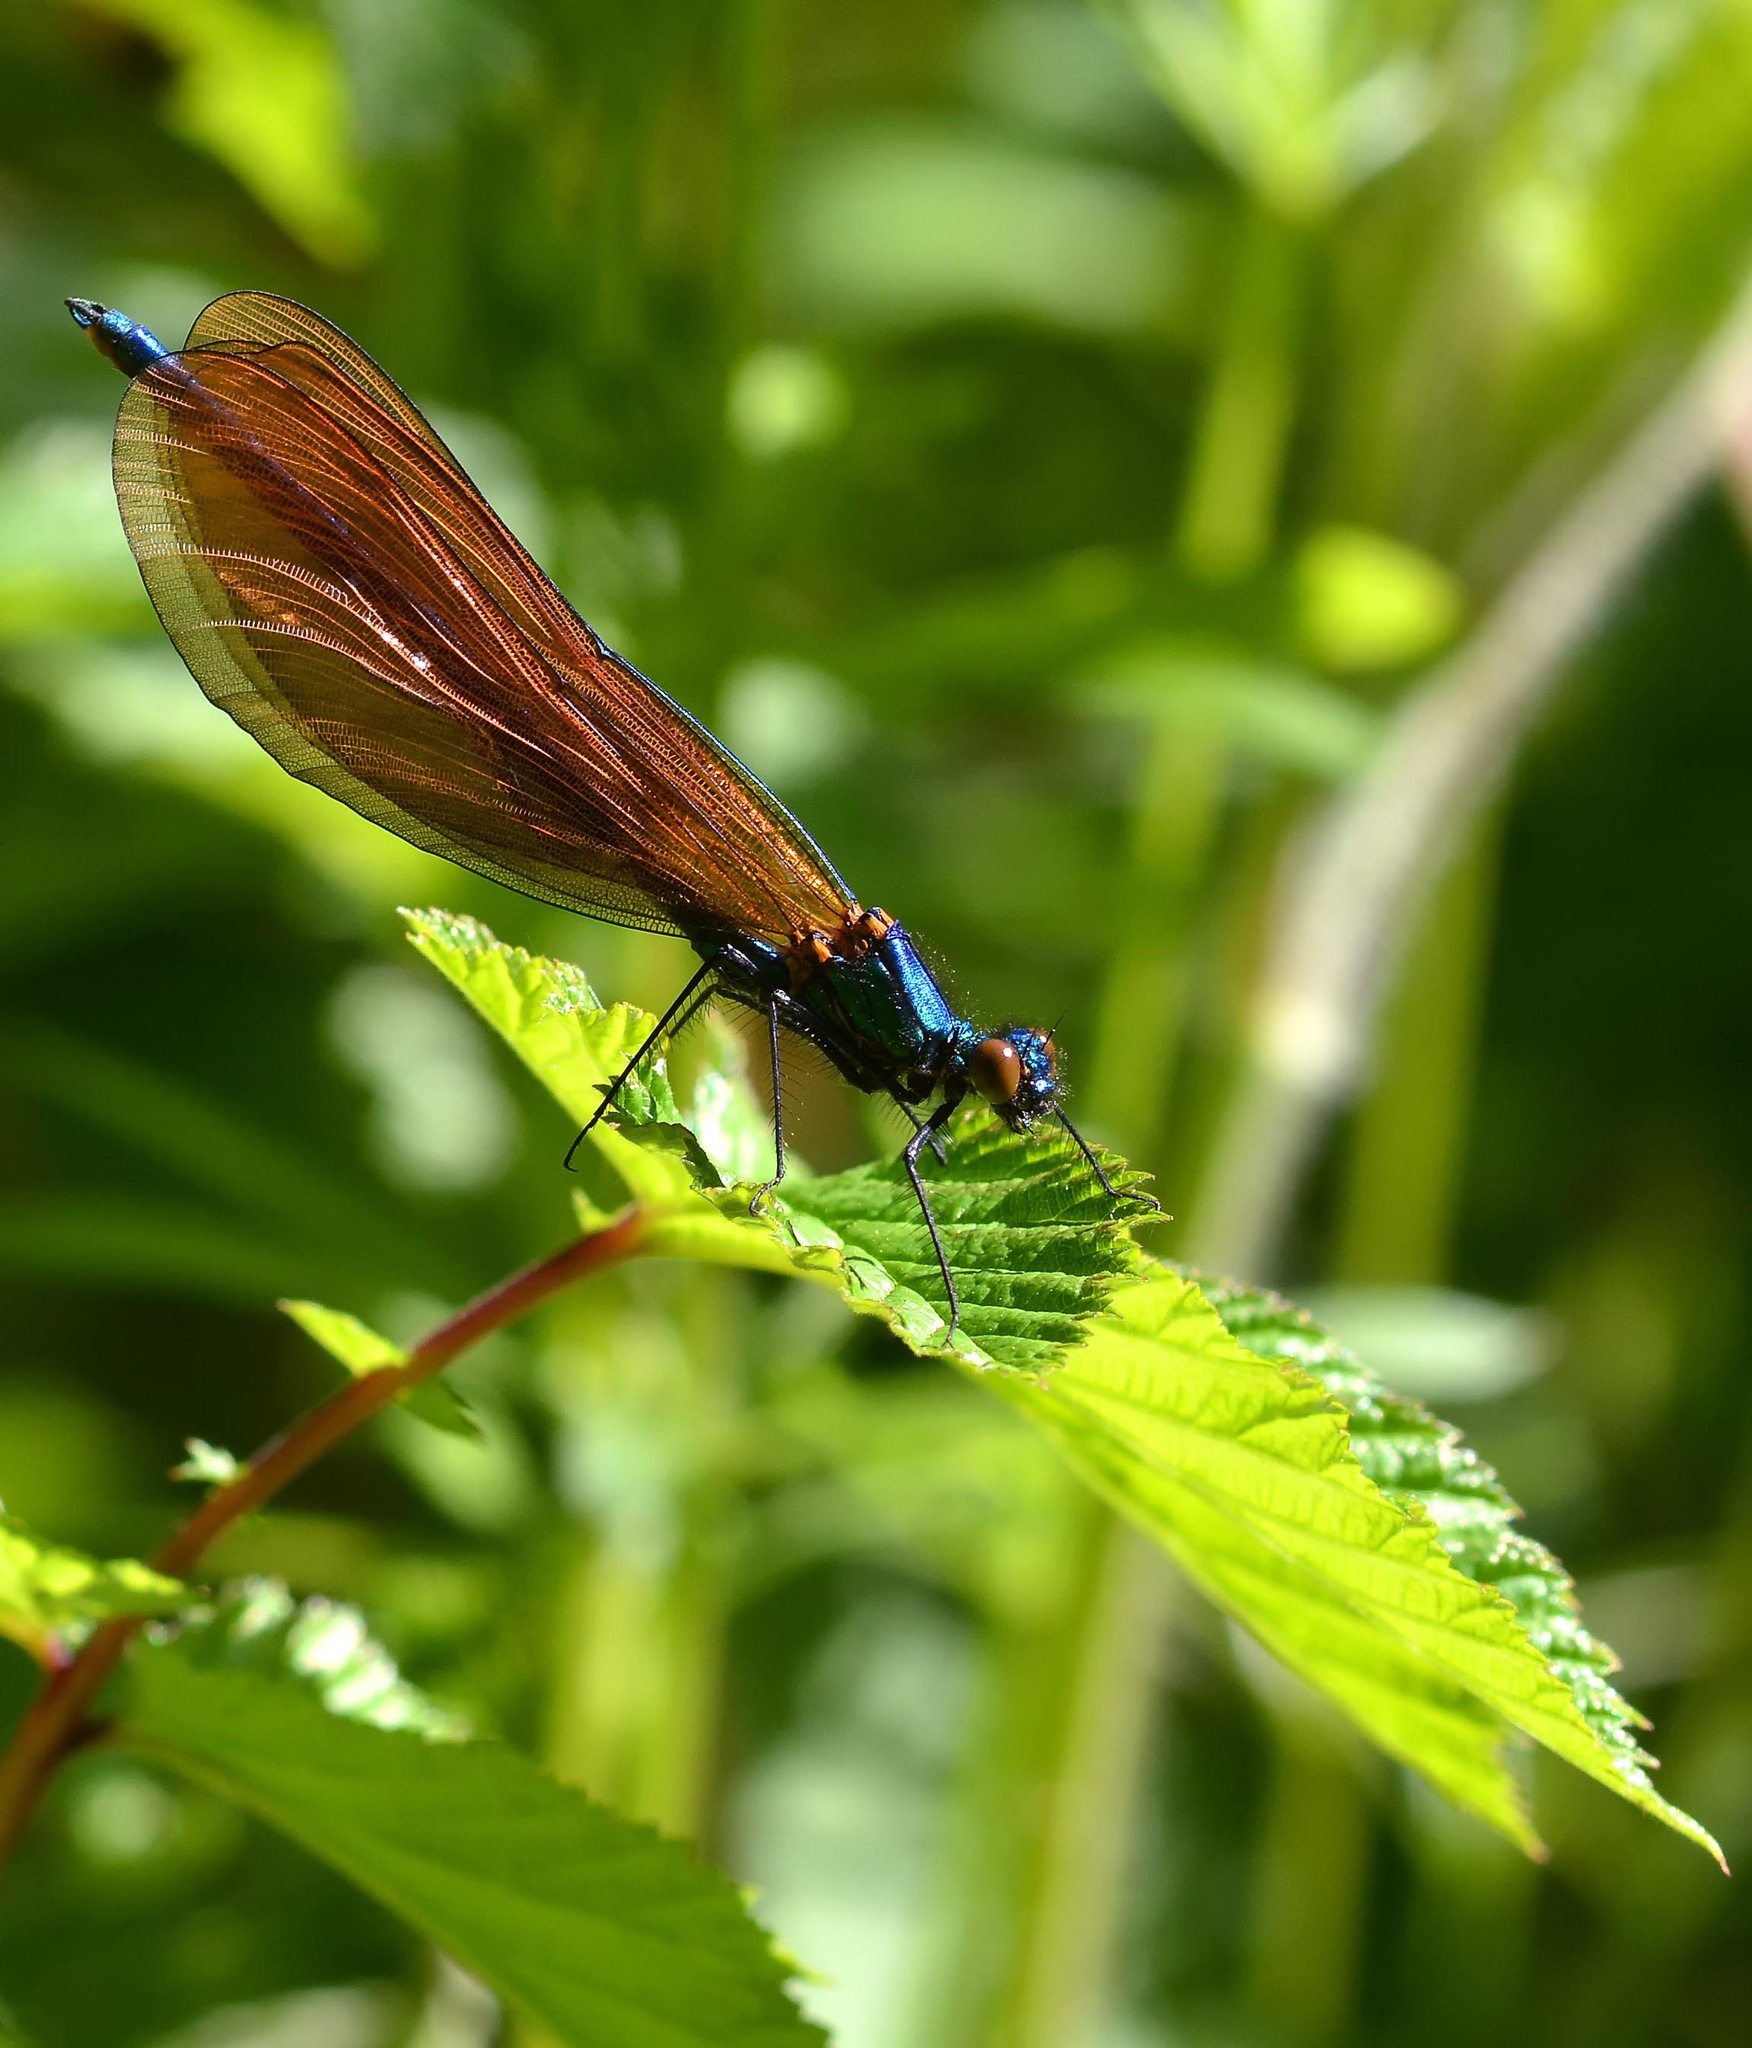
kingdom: Animalia
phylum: Arthropoda
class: Insecta
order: Odonata
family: Calopterygidae
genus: Calopteryx
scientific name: Calopteryx virgo
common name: Beautiful demoiselle
